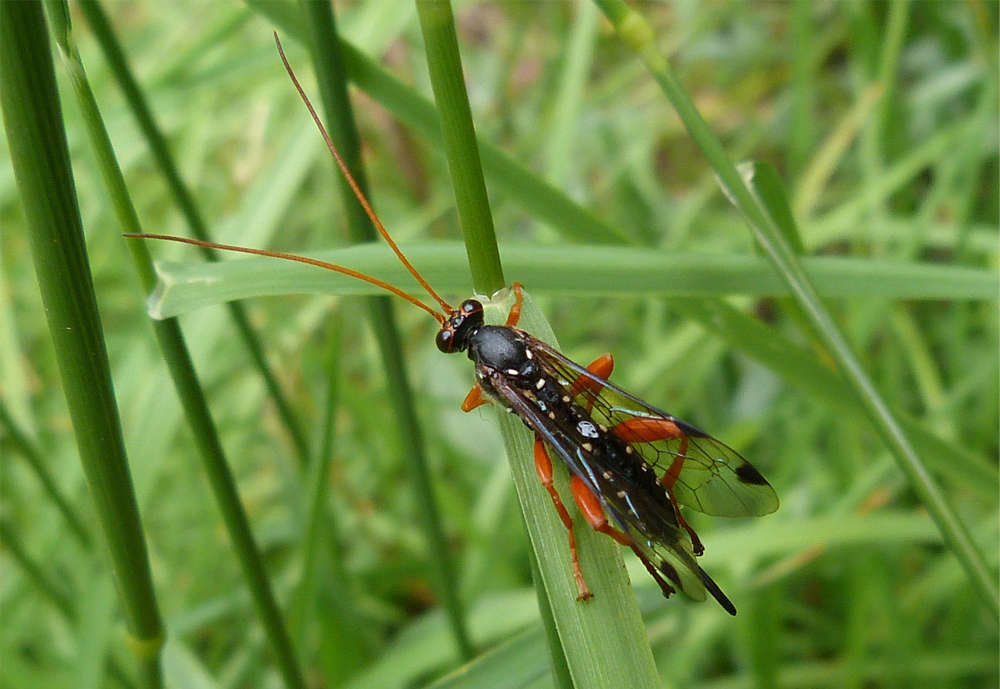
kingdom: Animalia
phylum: Arthropoda
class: Insecta
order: Hymenoptera
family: Ichneumonidae
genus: Echthromorpha
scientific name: Echthromorpha intricatoria
